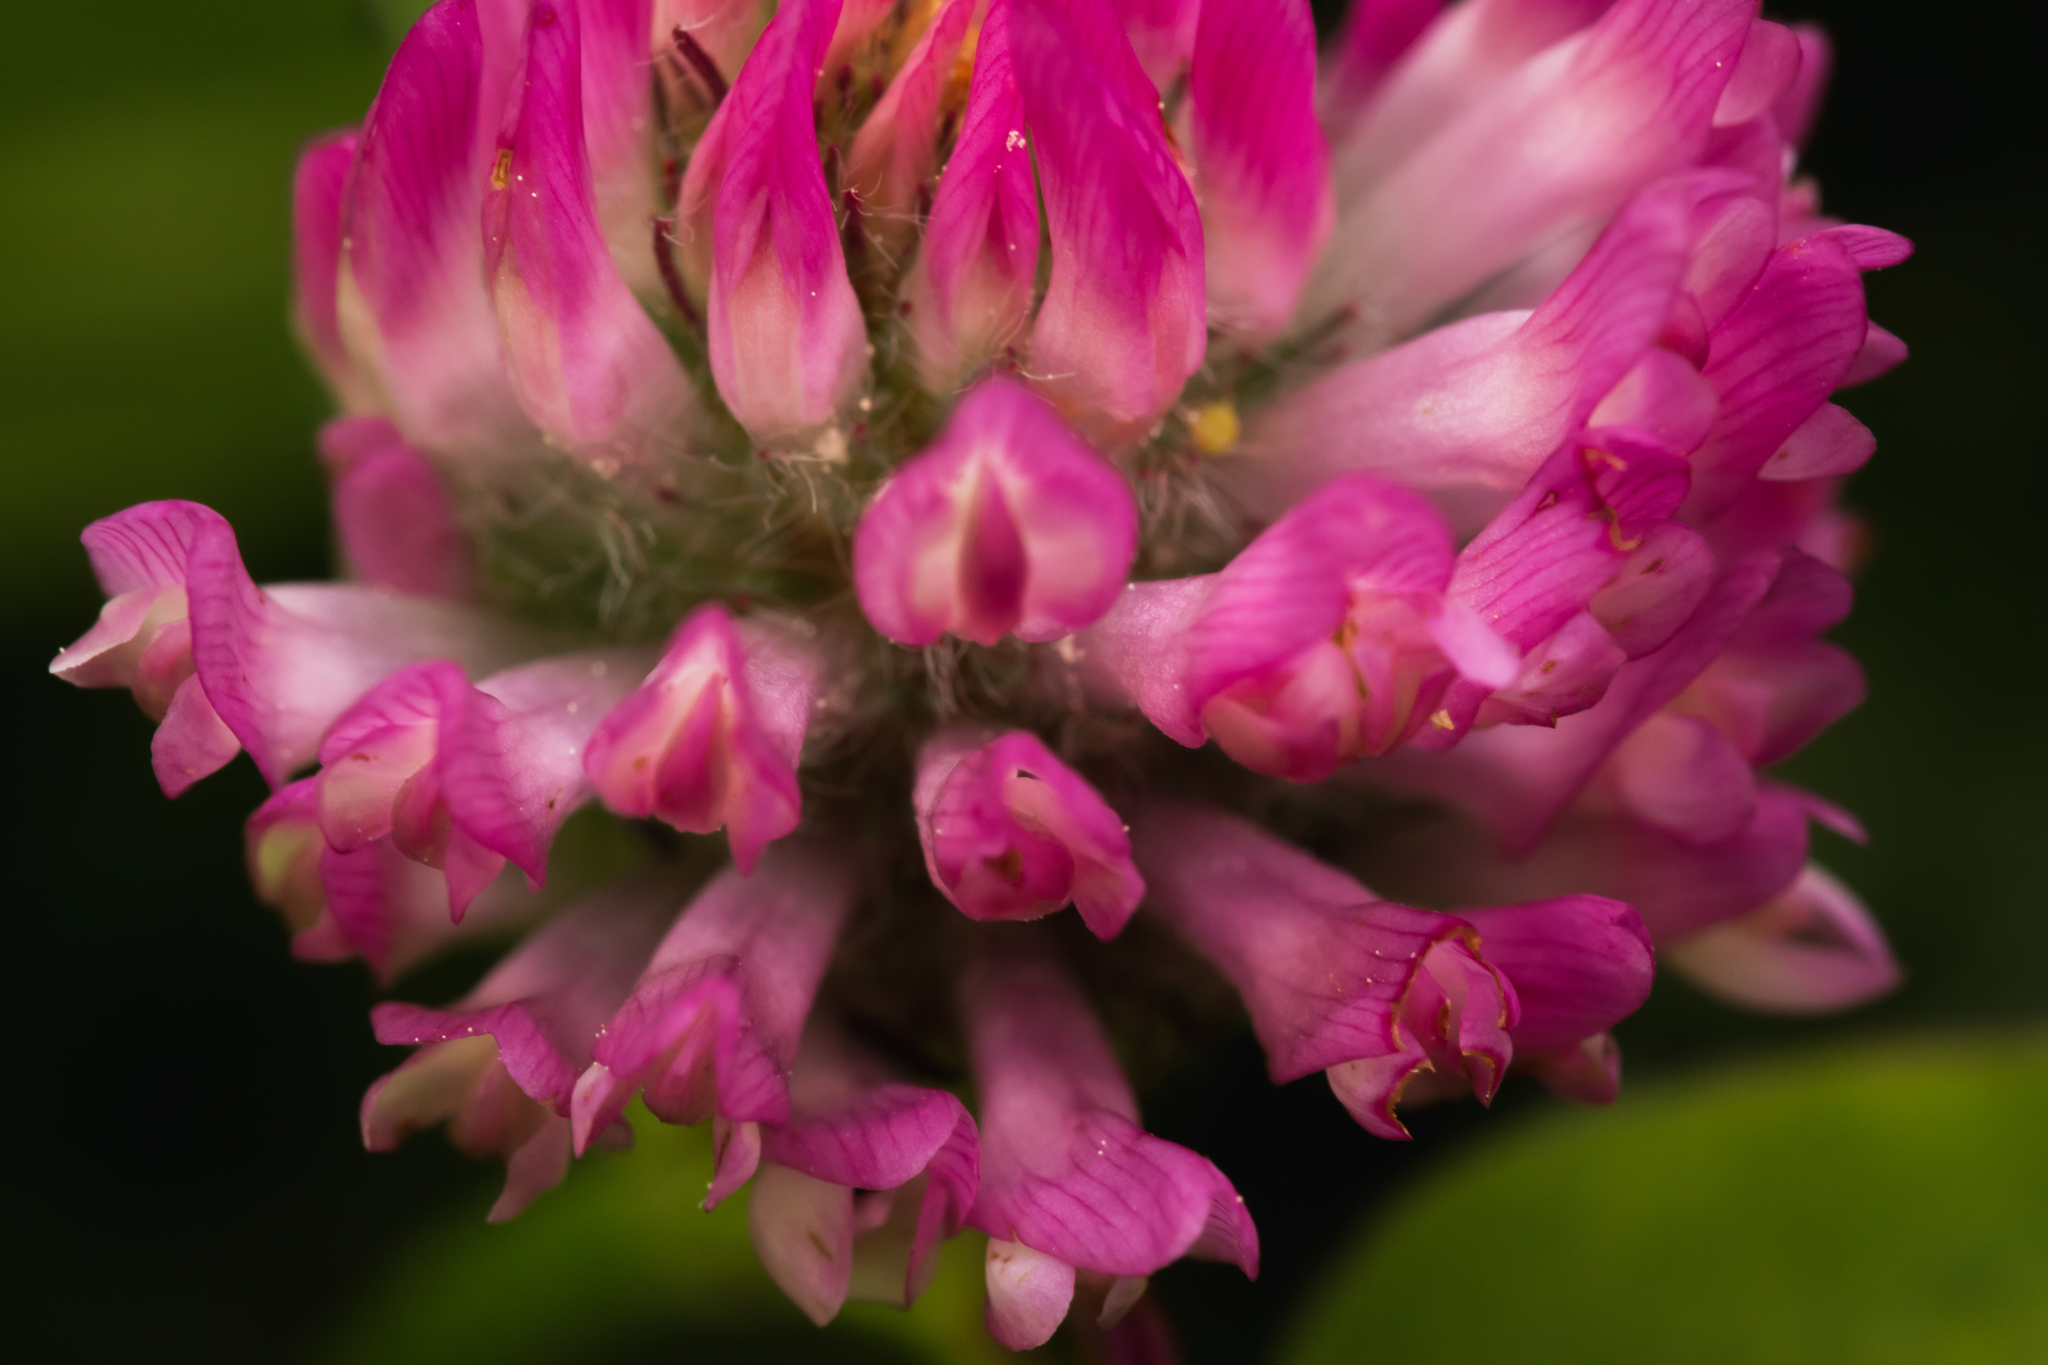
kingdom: Plantae
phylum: Tracheophyta
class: Magnoliopsida
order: Fabales
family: Fabaceae
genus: Trifolium
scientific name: Trifolium pratense
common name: Red clover
